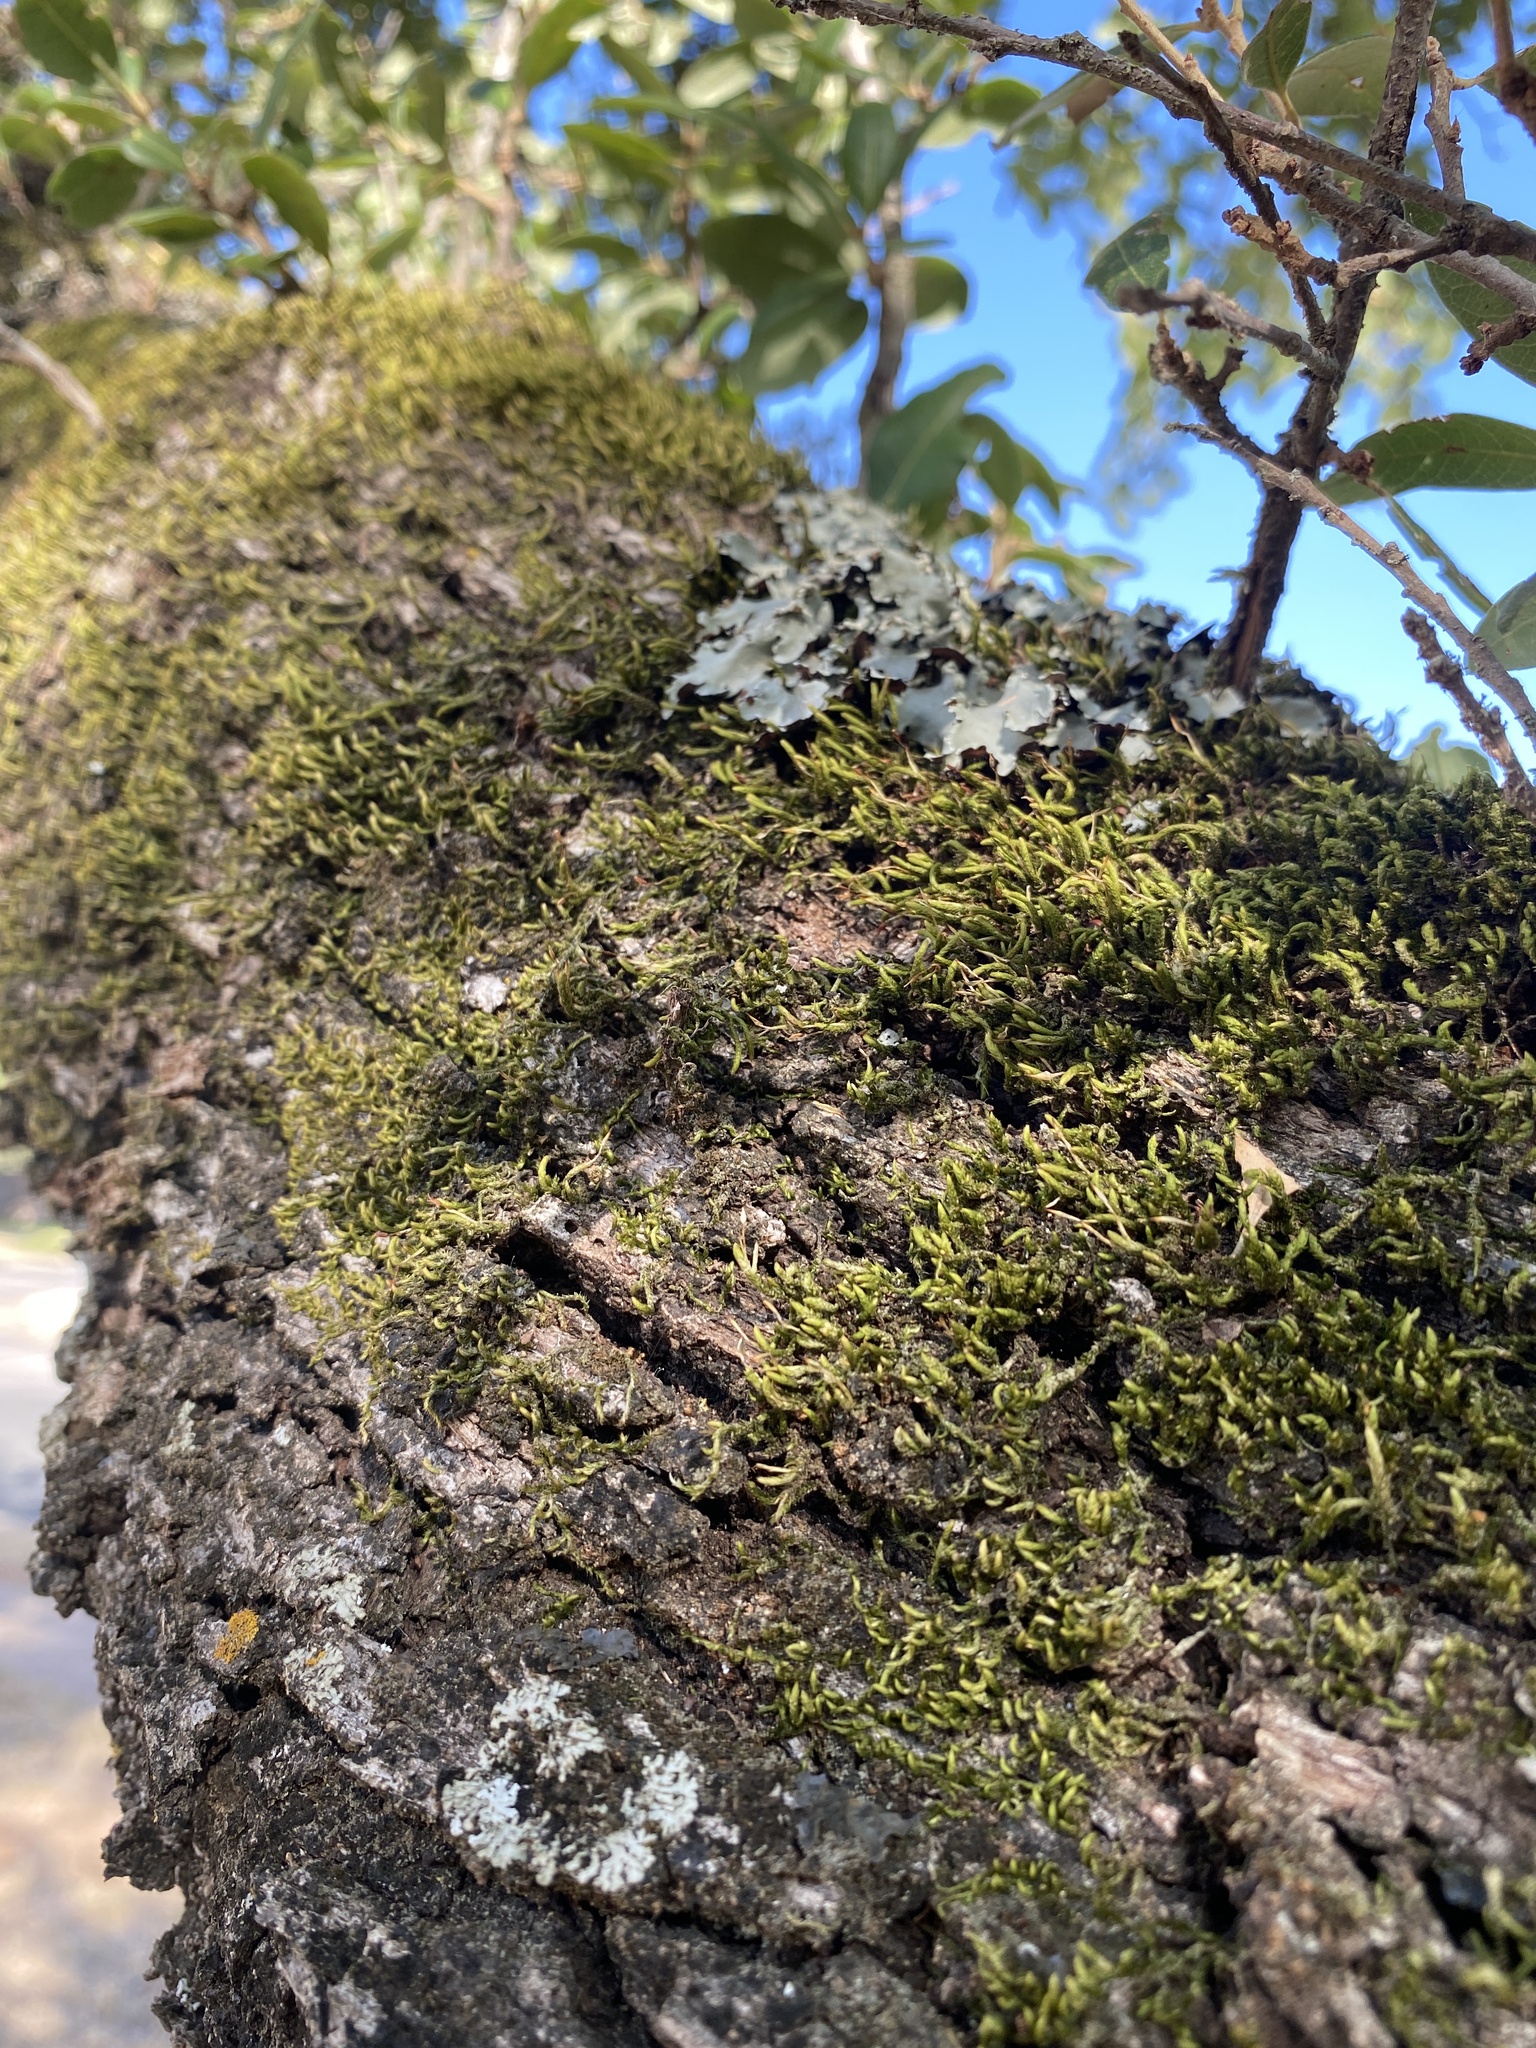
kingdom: Plantae
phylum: Bryophyta
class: Bryopsida
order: Hypnales
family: Leucodontaceae
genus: Leucodon
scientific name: Leucodon julaceus
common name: Smooth hook moss
